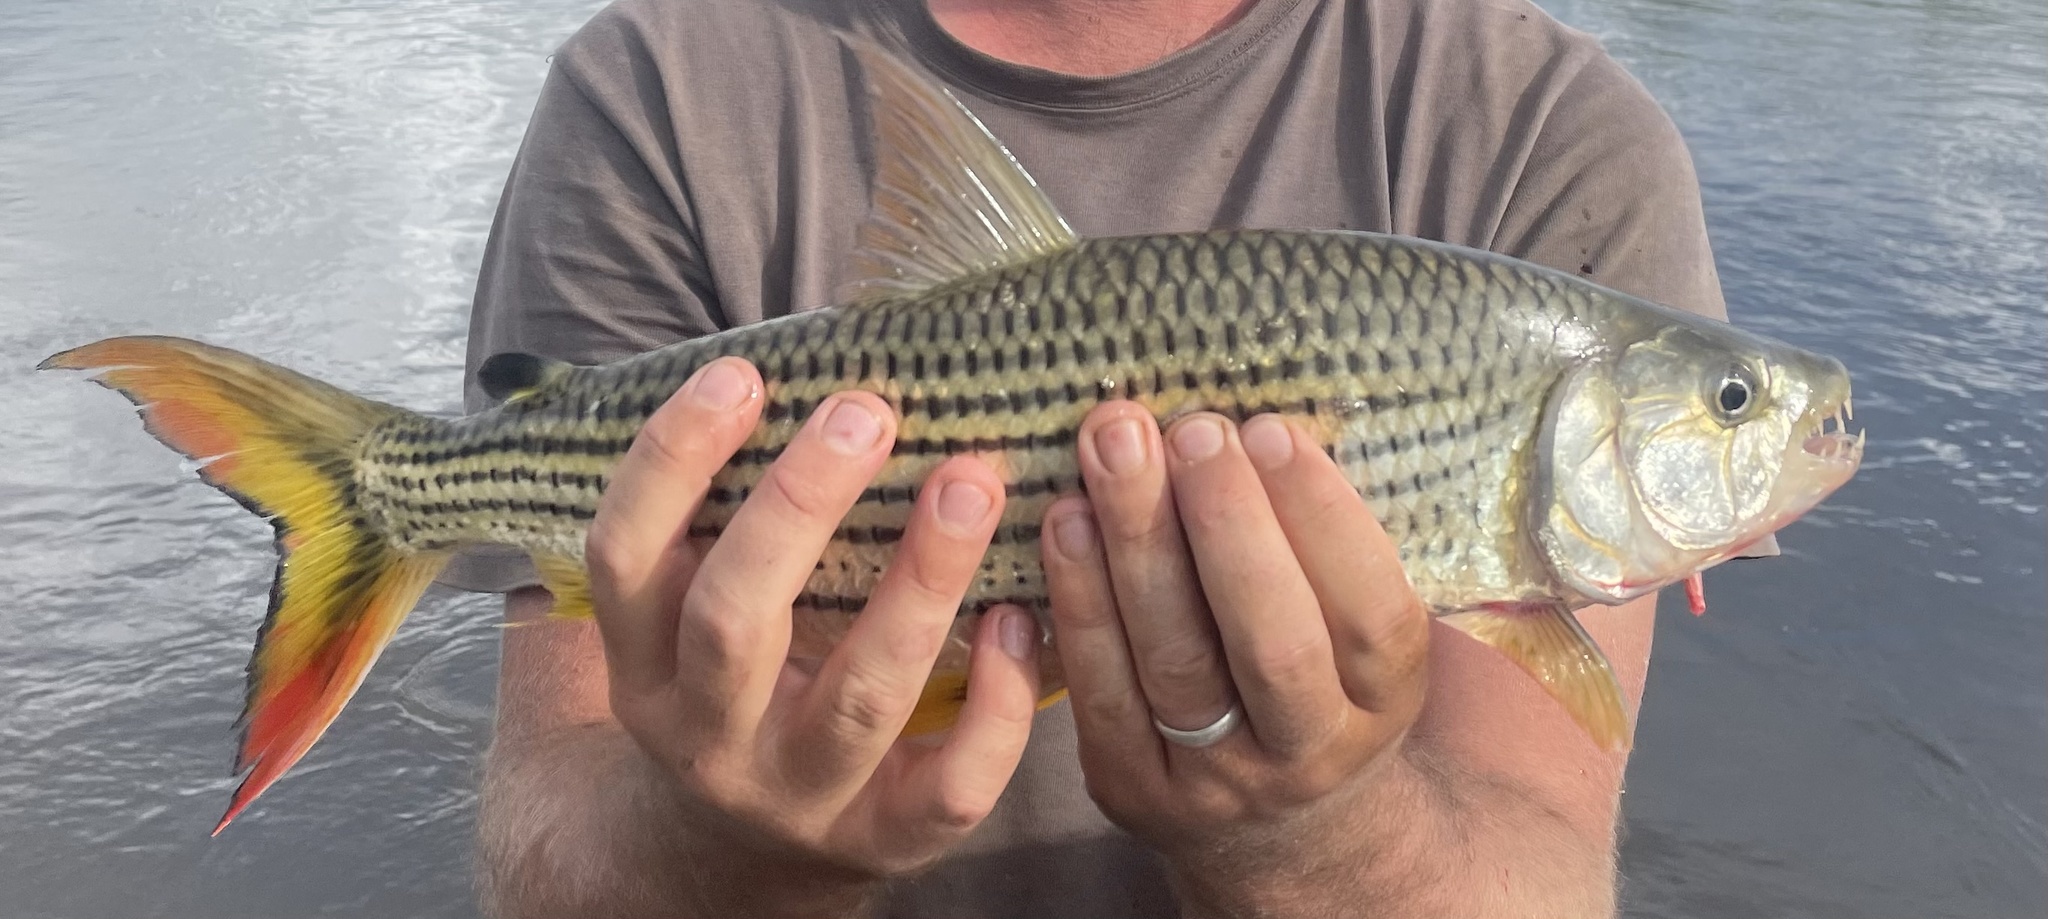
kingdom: Animalia
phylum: Chordata
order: Characiformes
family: Alestidae
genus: Hydrocynus
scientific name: Hydrocynus vittatus
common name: Tigerfish
